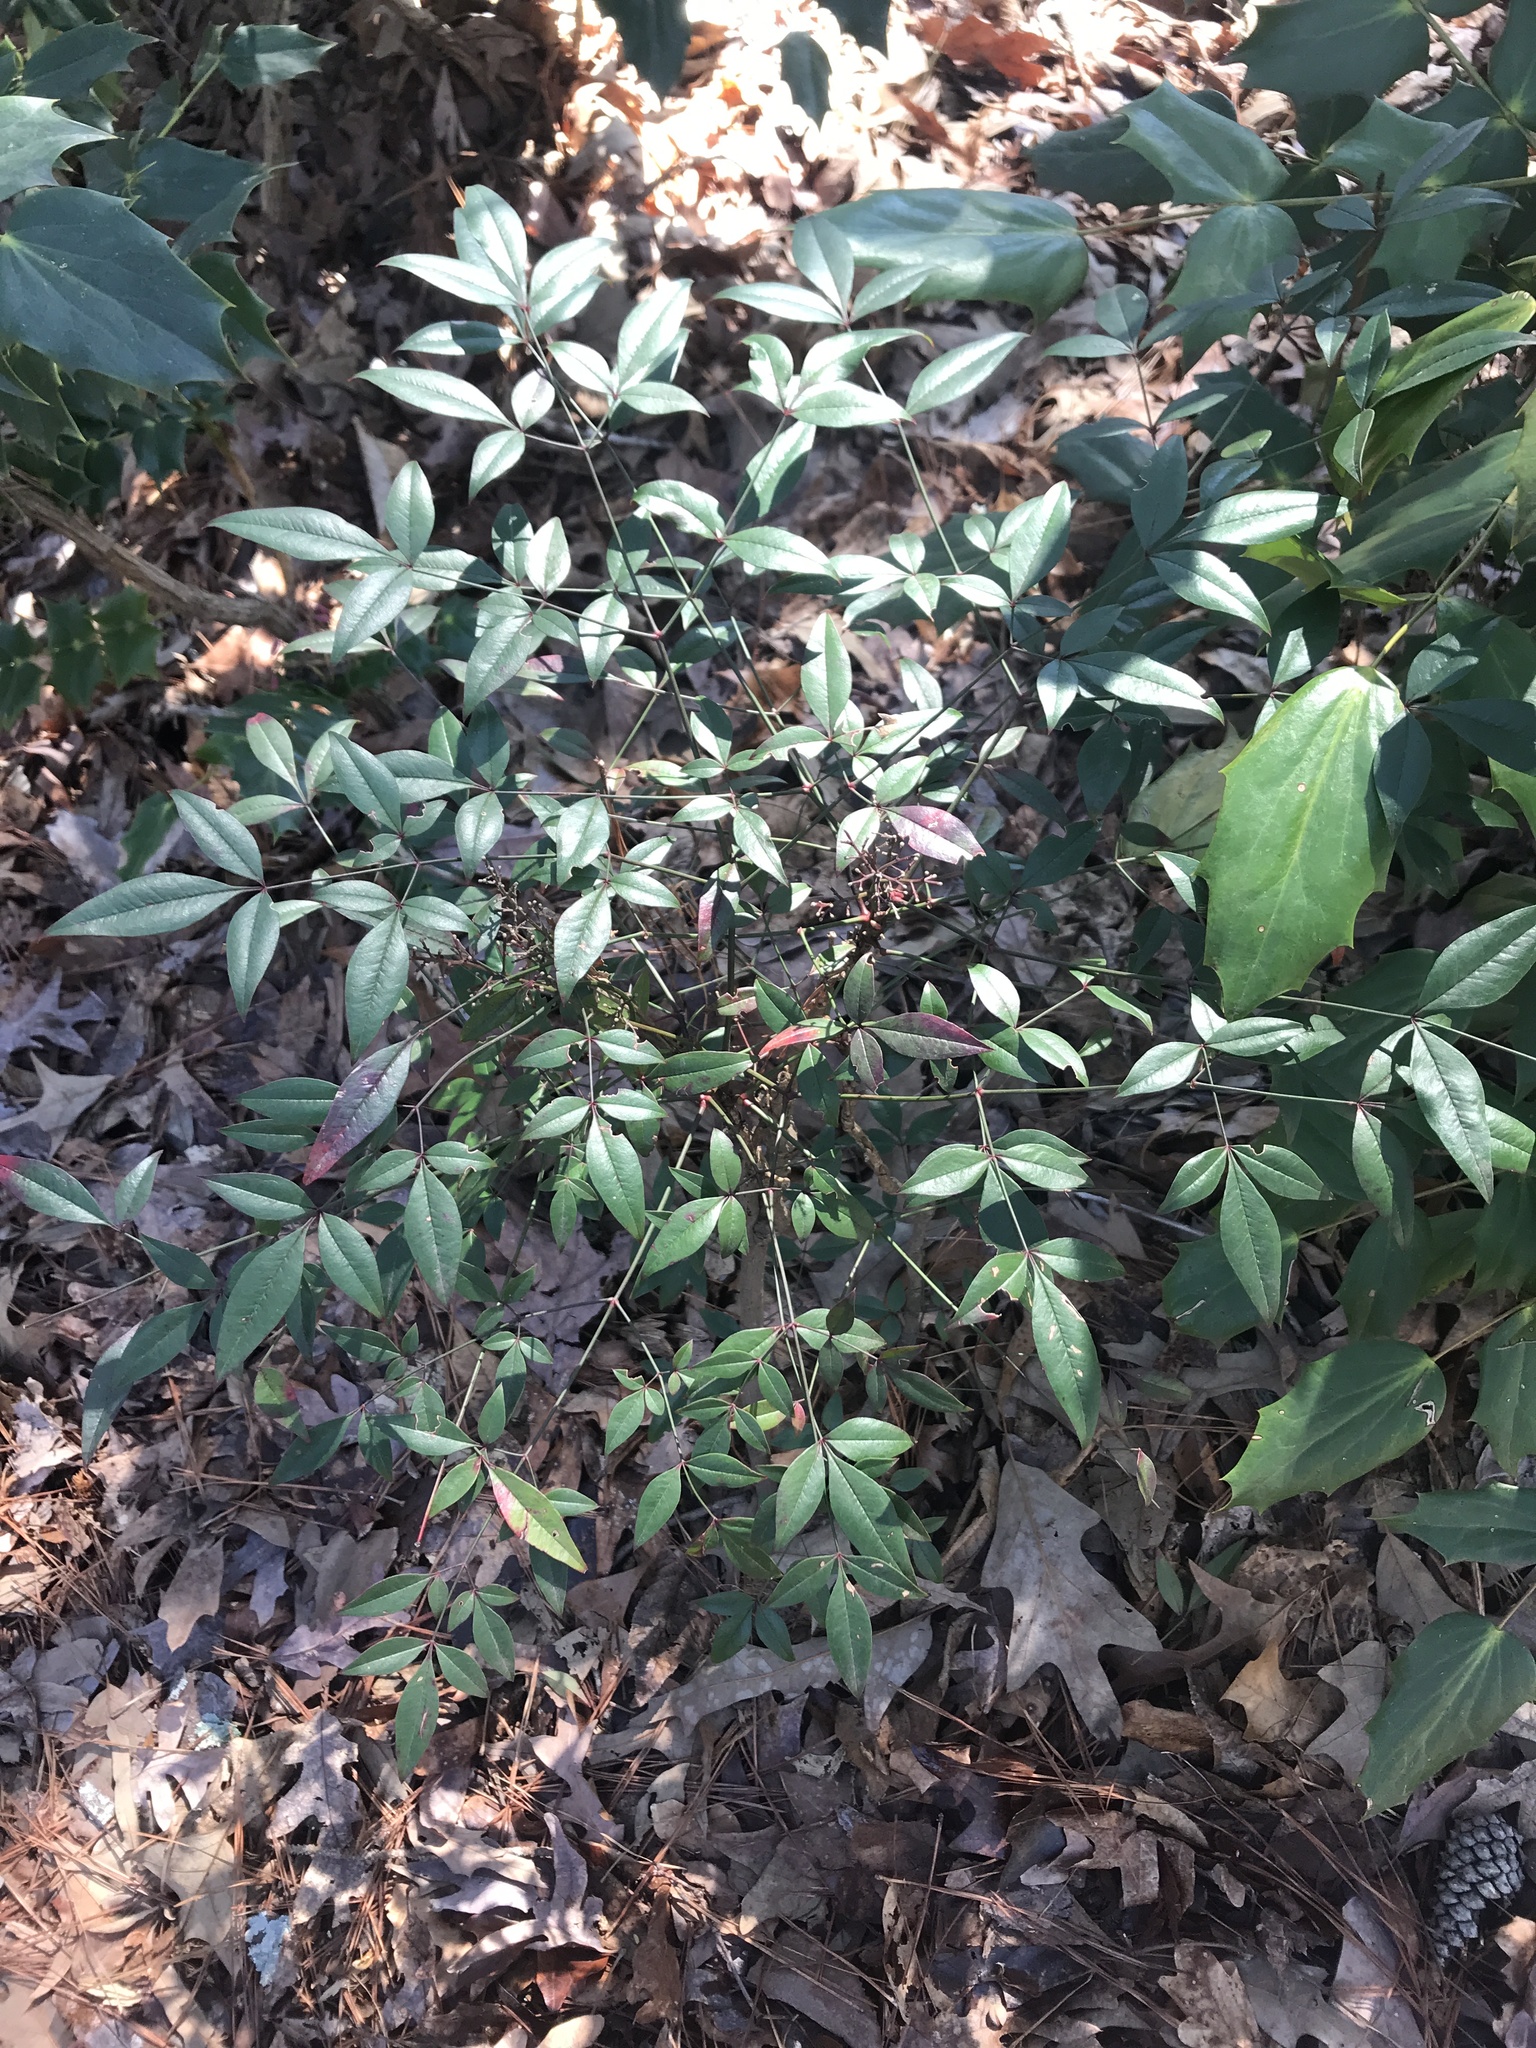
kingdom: Plantae
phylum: Tracheophyta
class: Magnoliopsida
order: Ranunculales
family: Berberidaceae
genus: Nandina
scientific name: Nandina domestica
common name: Sacred bamboo
